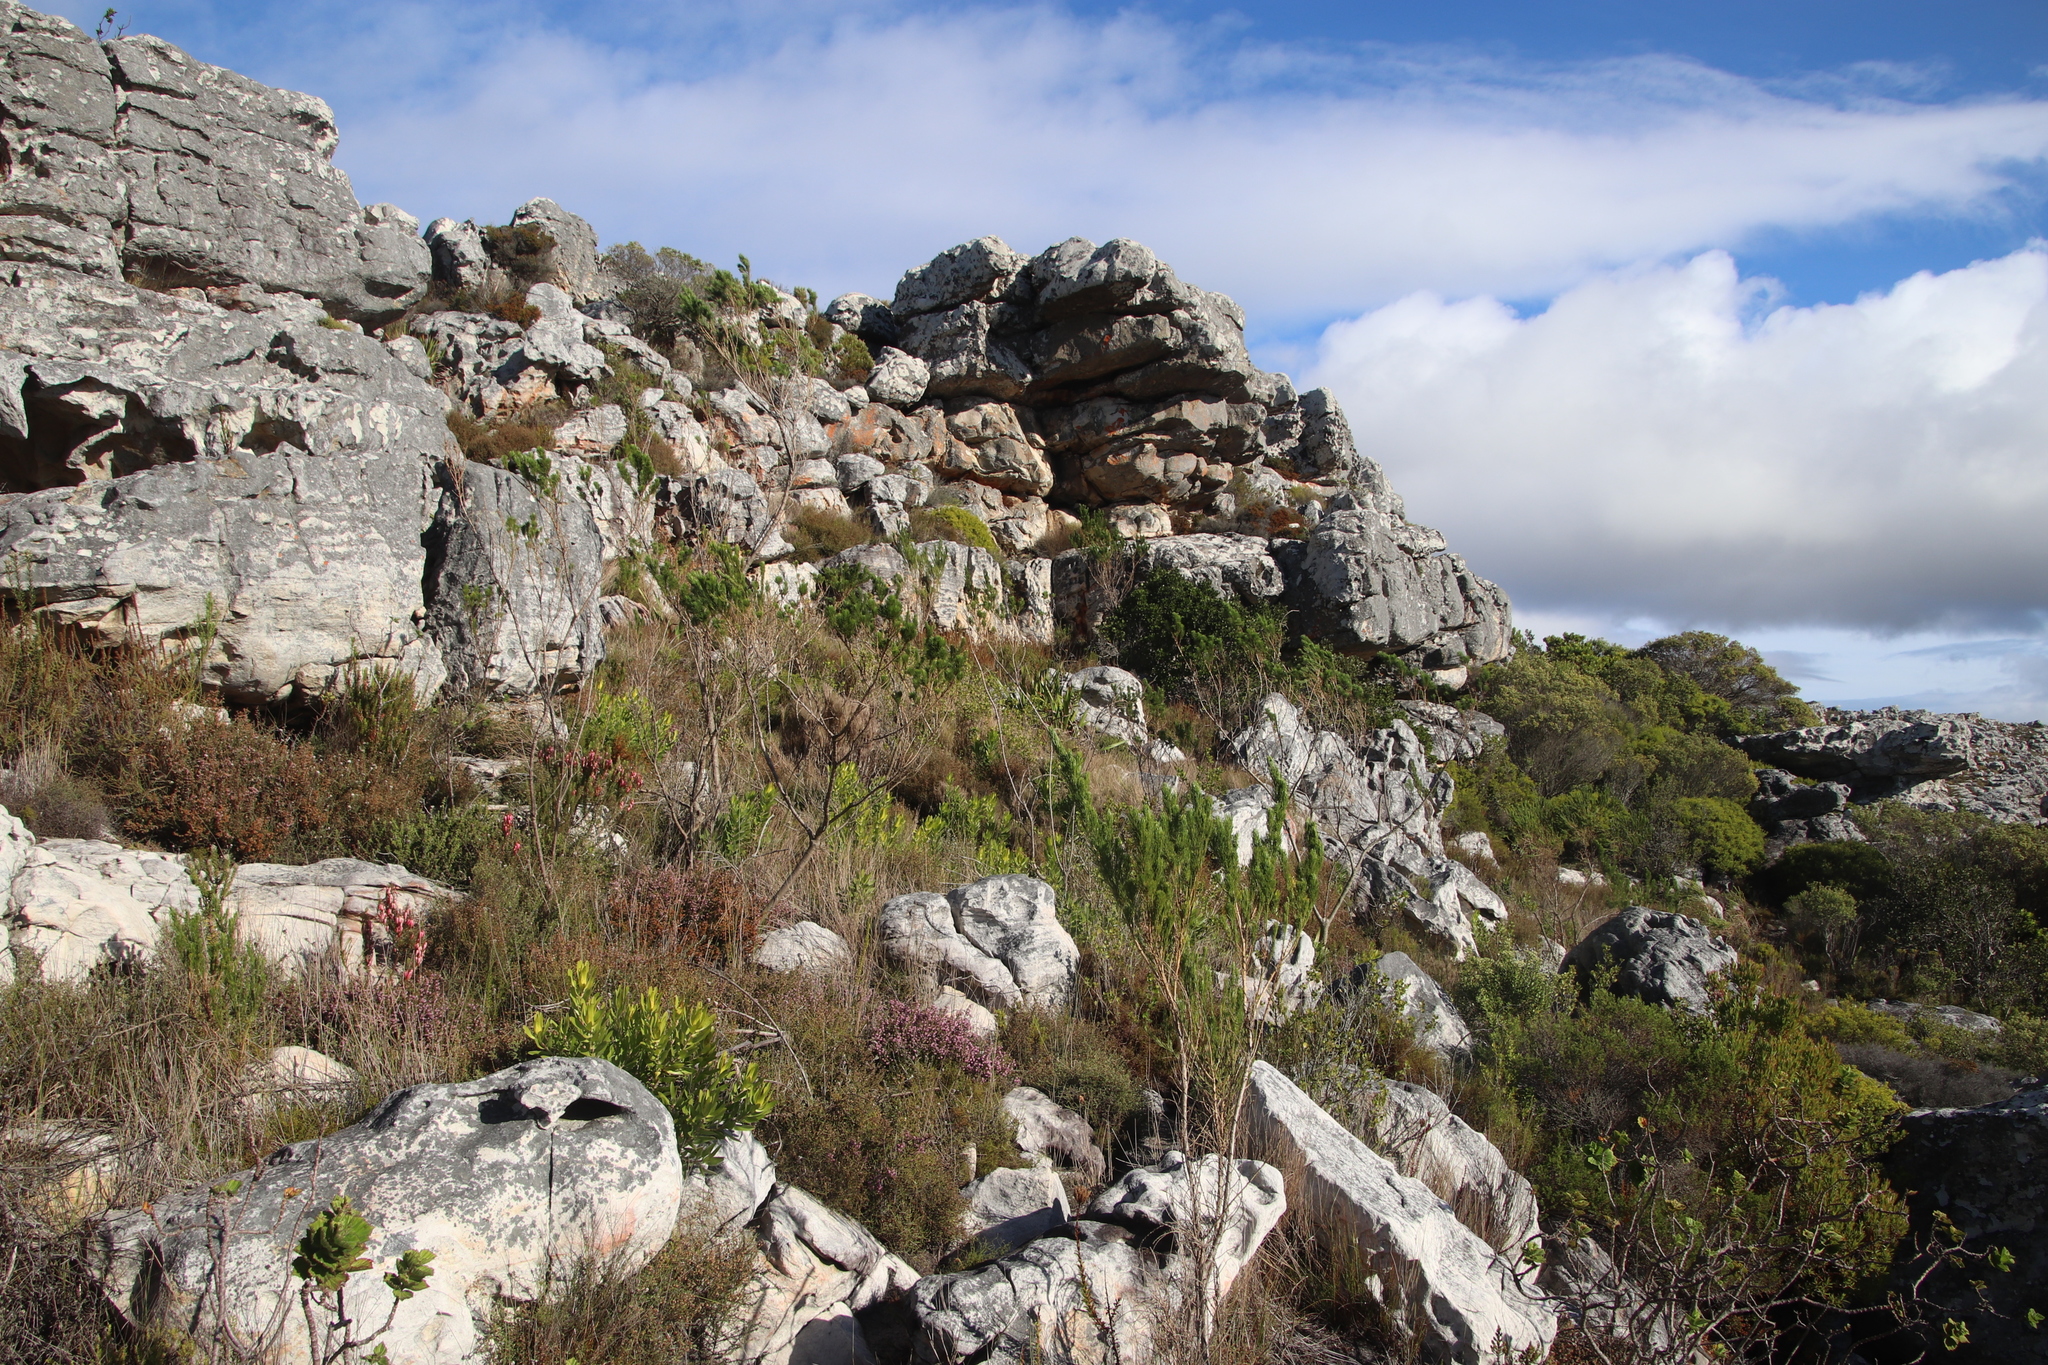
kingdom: Plantae
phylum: Tracheophyta
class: Magnoliopsida
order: Fabales
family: Fabaceae
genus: Psoralea
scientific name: Psoralea pinnata
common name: African scurfpea
